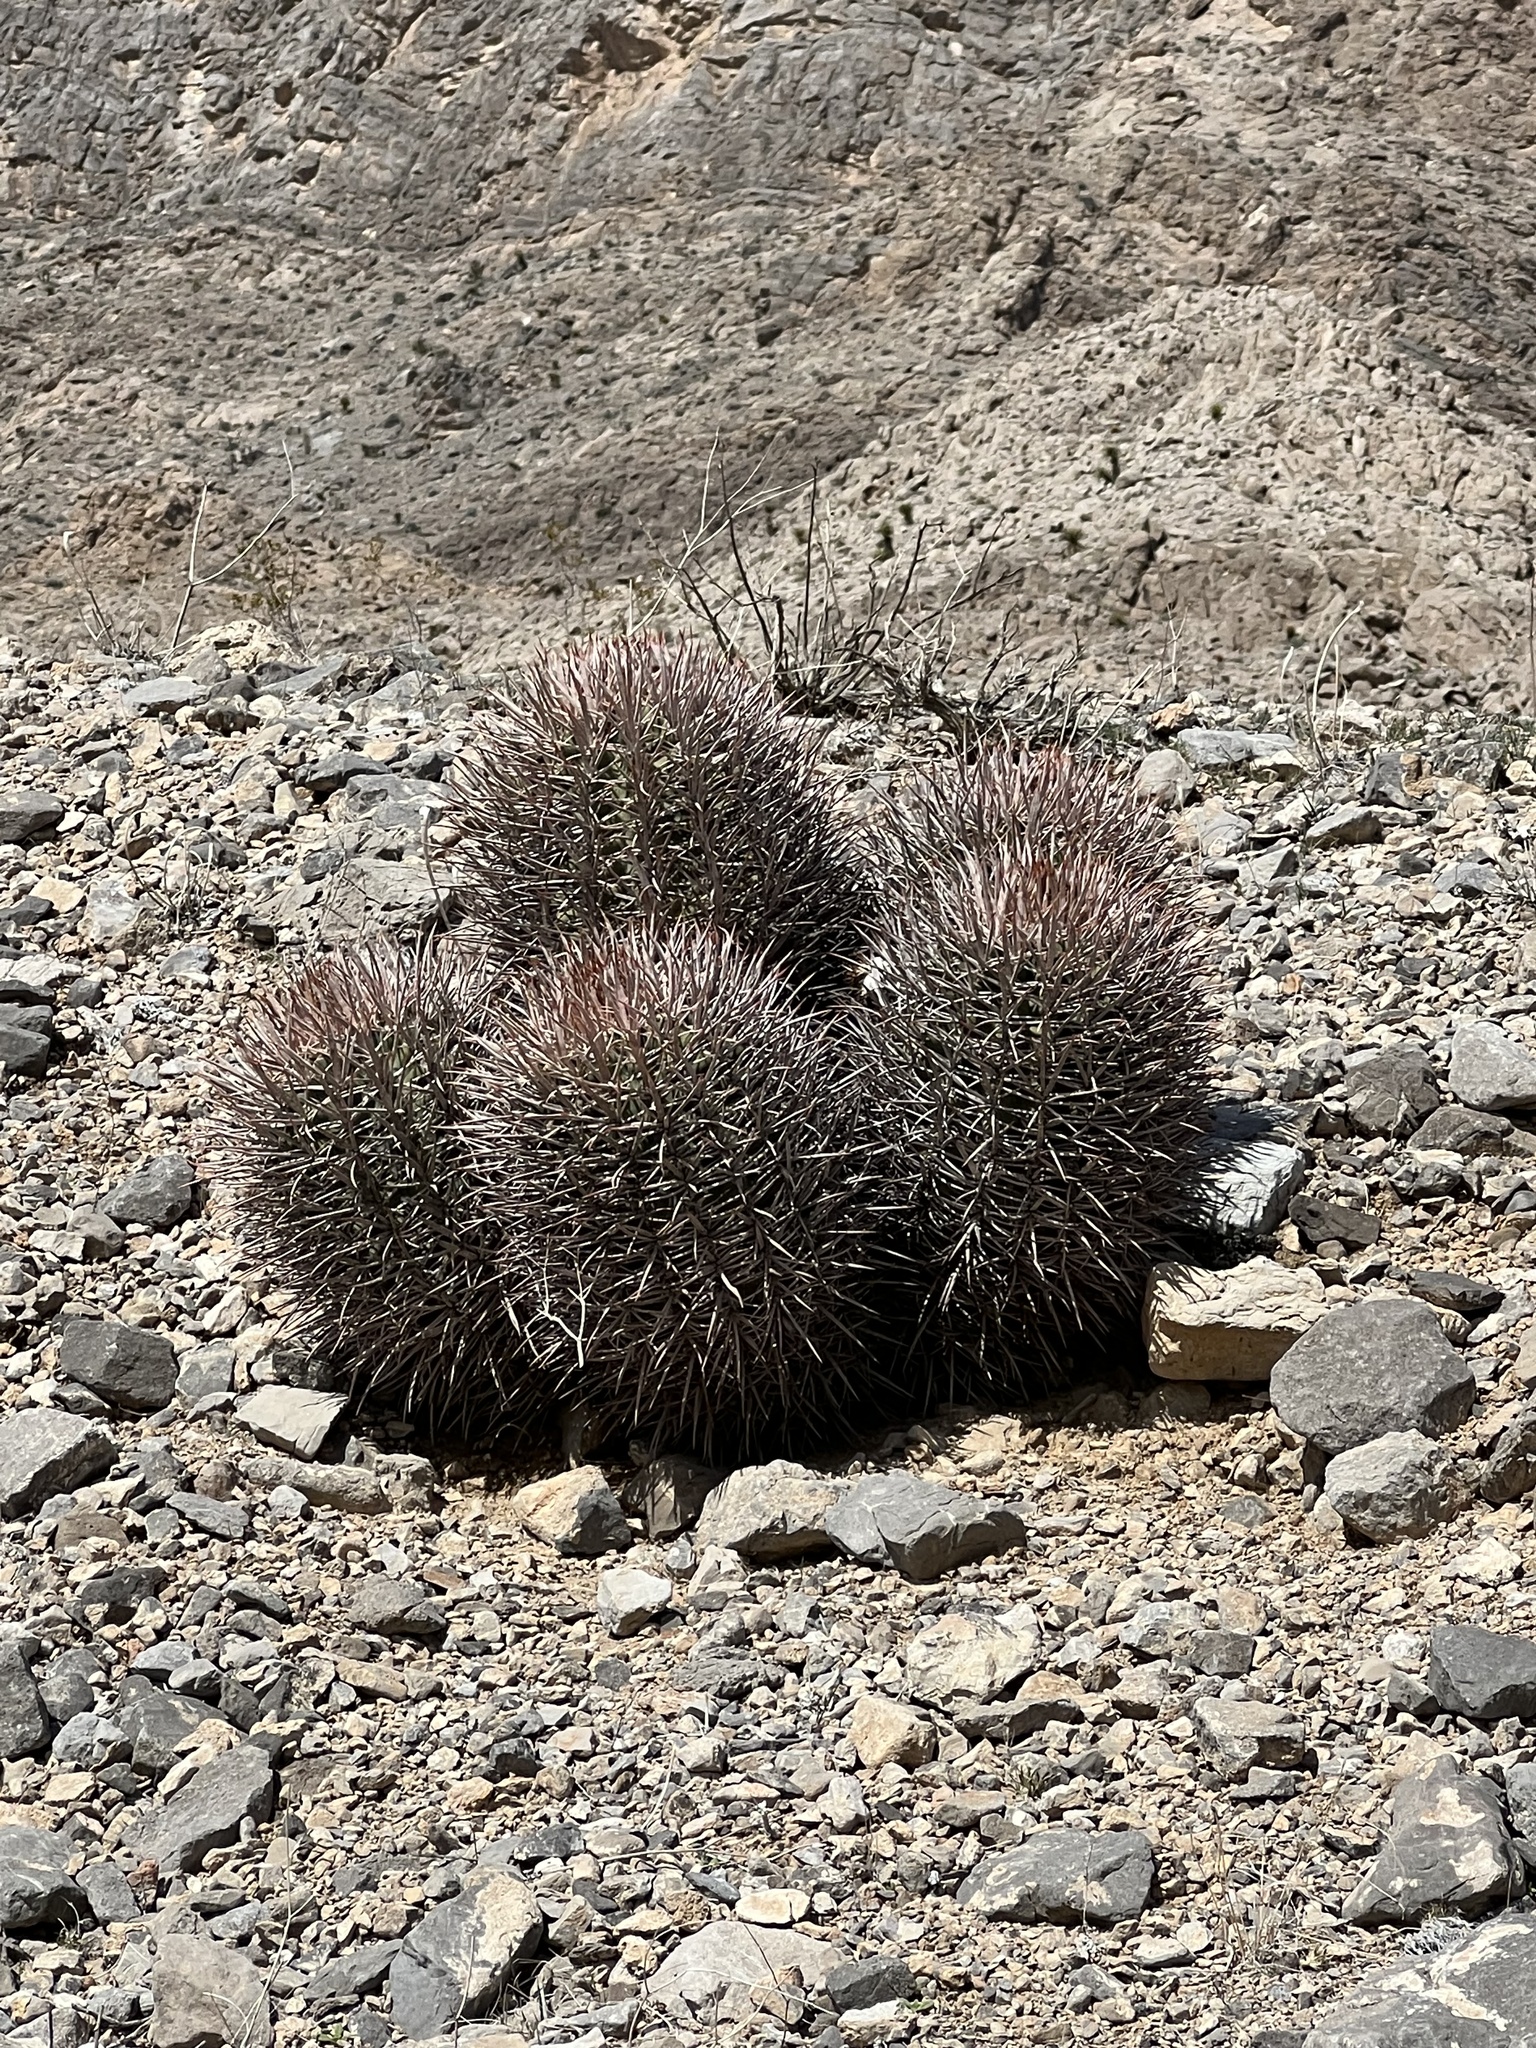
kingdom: Plantae
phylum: Tracheophyta
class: Magnoliopsida
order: Caryophyllales
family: Cactaceae
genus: Echinocactus
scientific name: Echinocactus polycephalus
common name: Cottontop cactus
